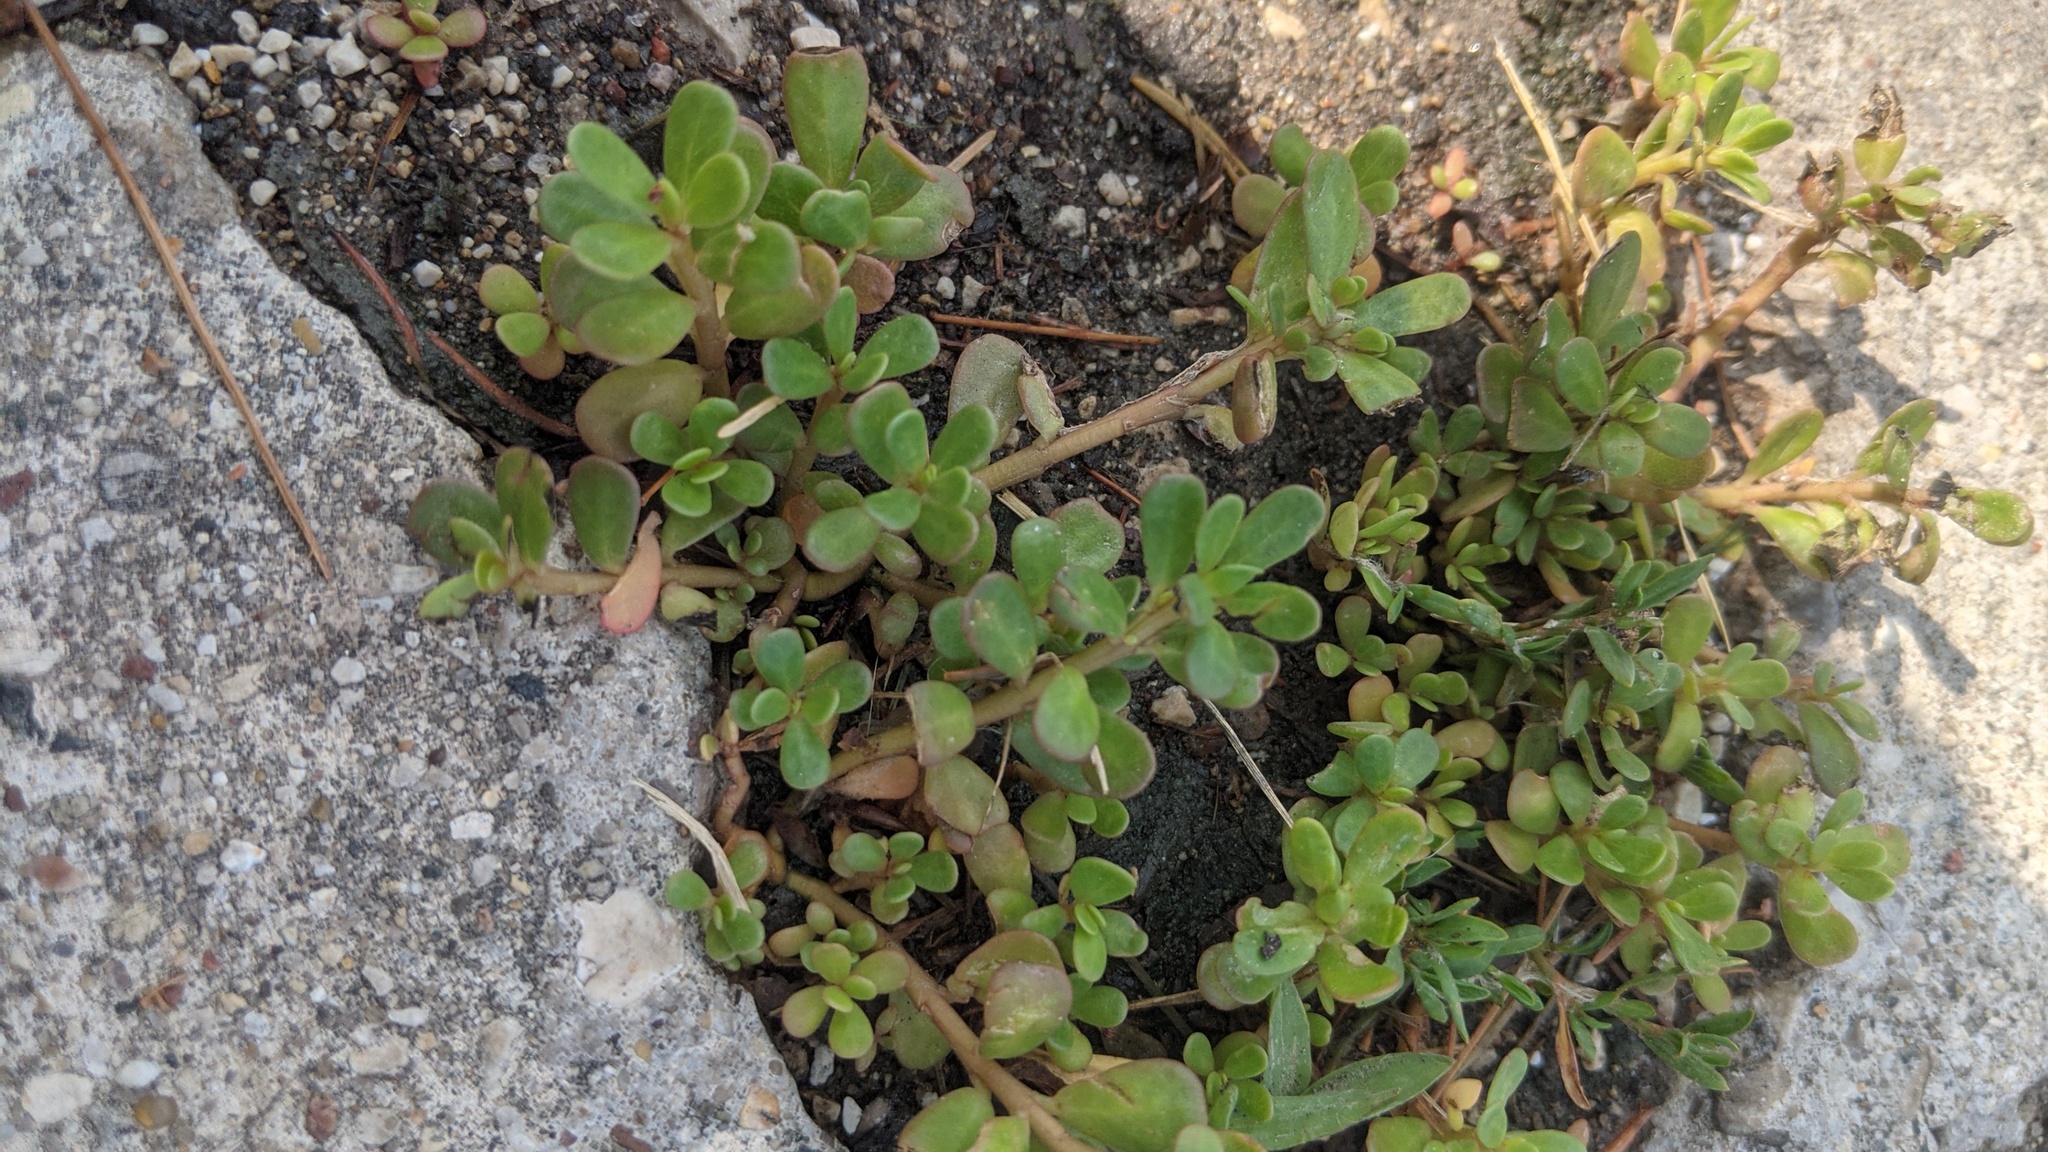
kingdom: Plantae
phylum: Tracheophyta
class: Magnoliopsida
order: Caryophyllales
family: Portulacaceae
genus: Portulaca
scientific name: Portulaca oleracea
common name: Common purslane
